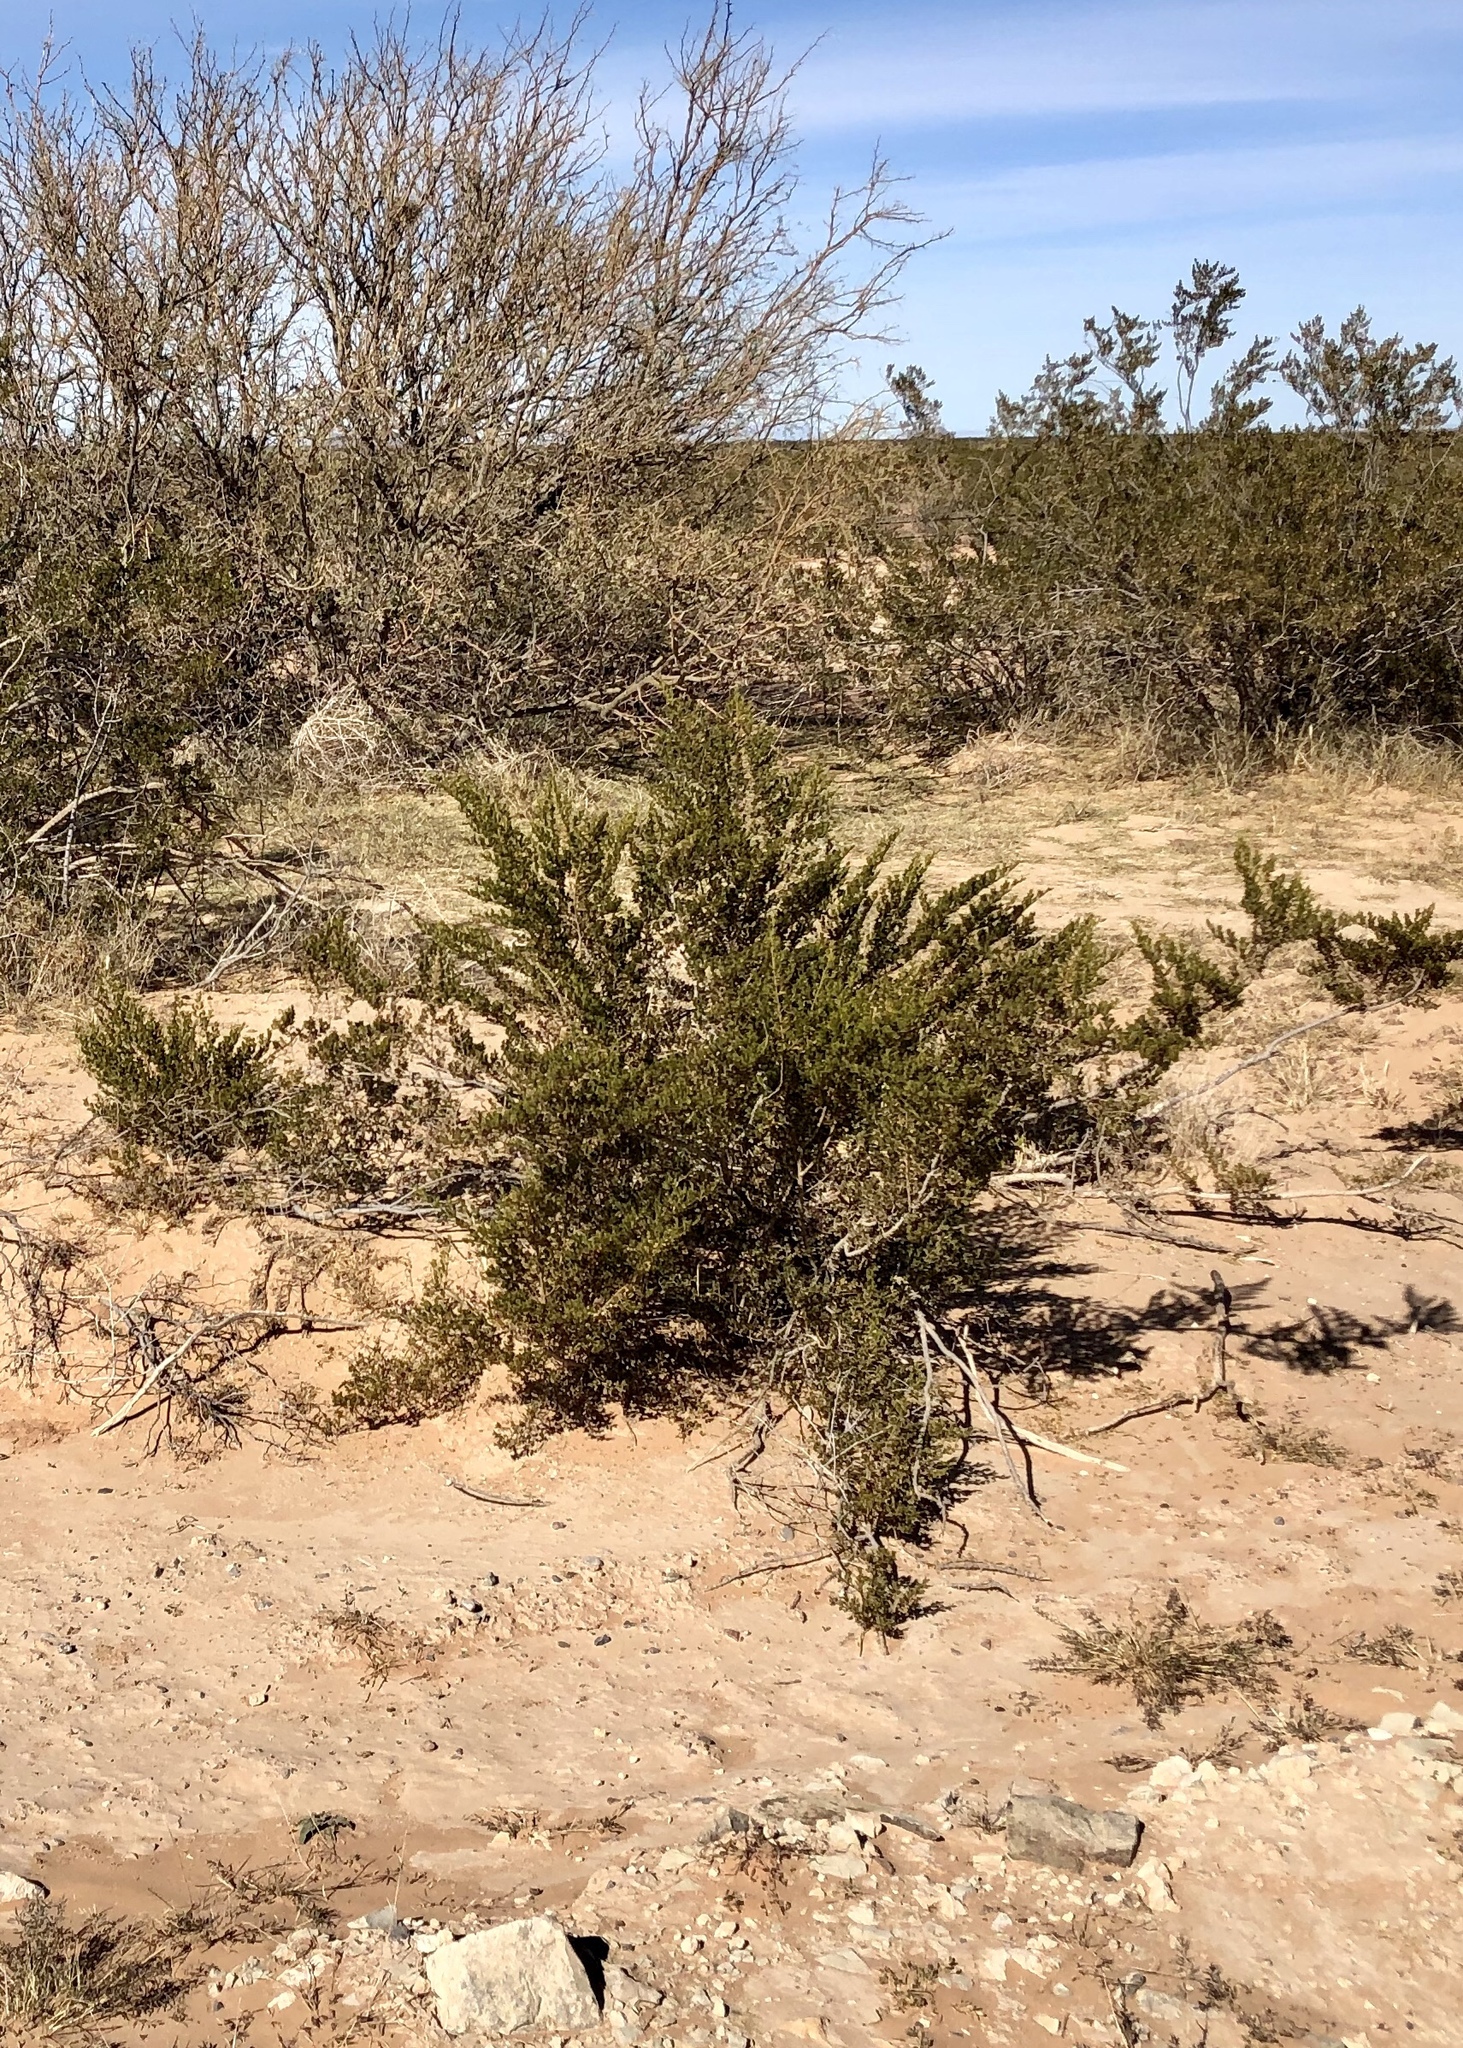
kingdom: Plantae
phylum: Tracheophyta
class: Magnoliopsida
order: Zygophyllales
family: Zygophyllaceae
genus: Larrea
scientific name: Larrea tridentata
